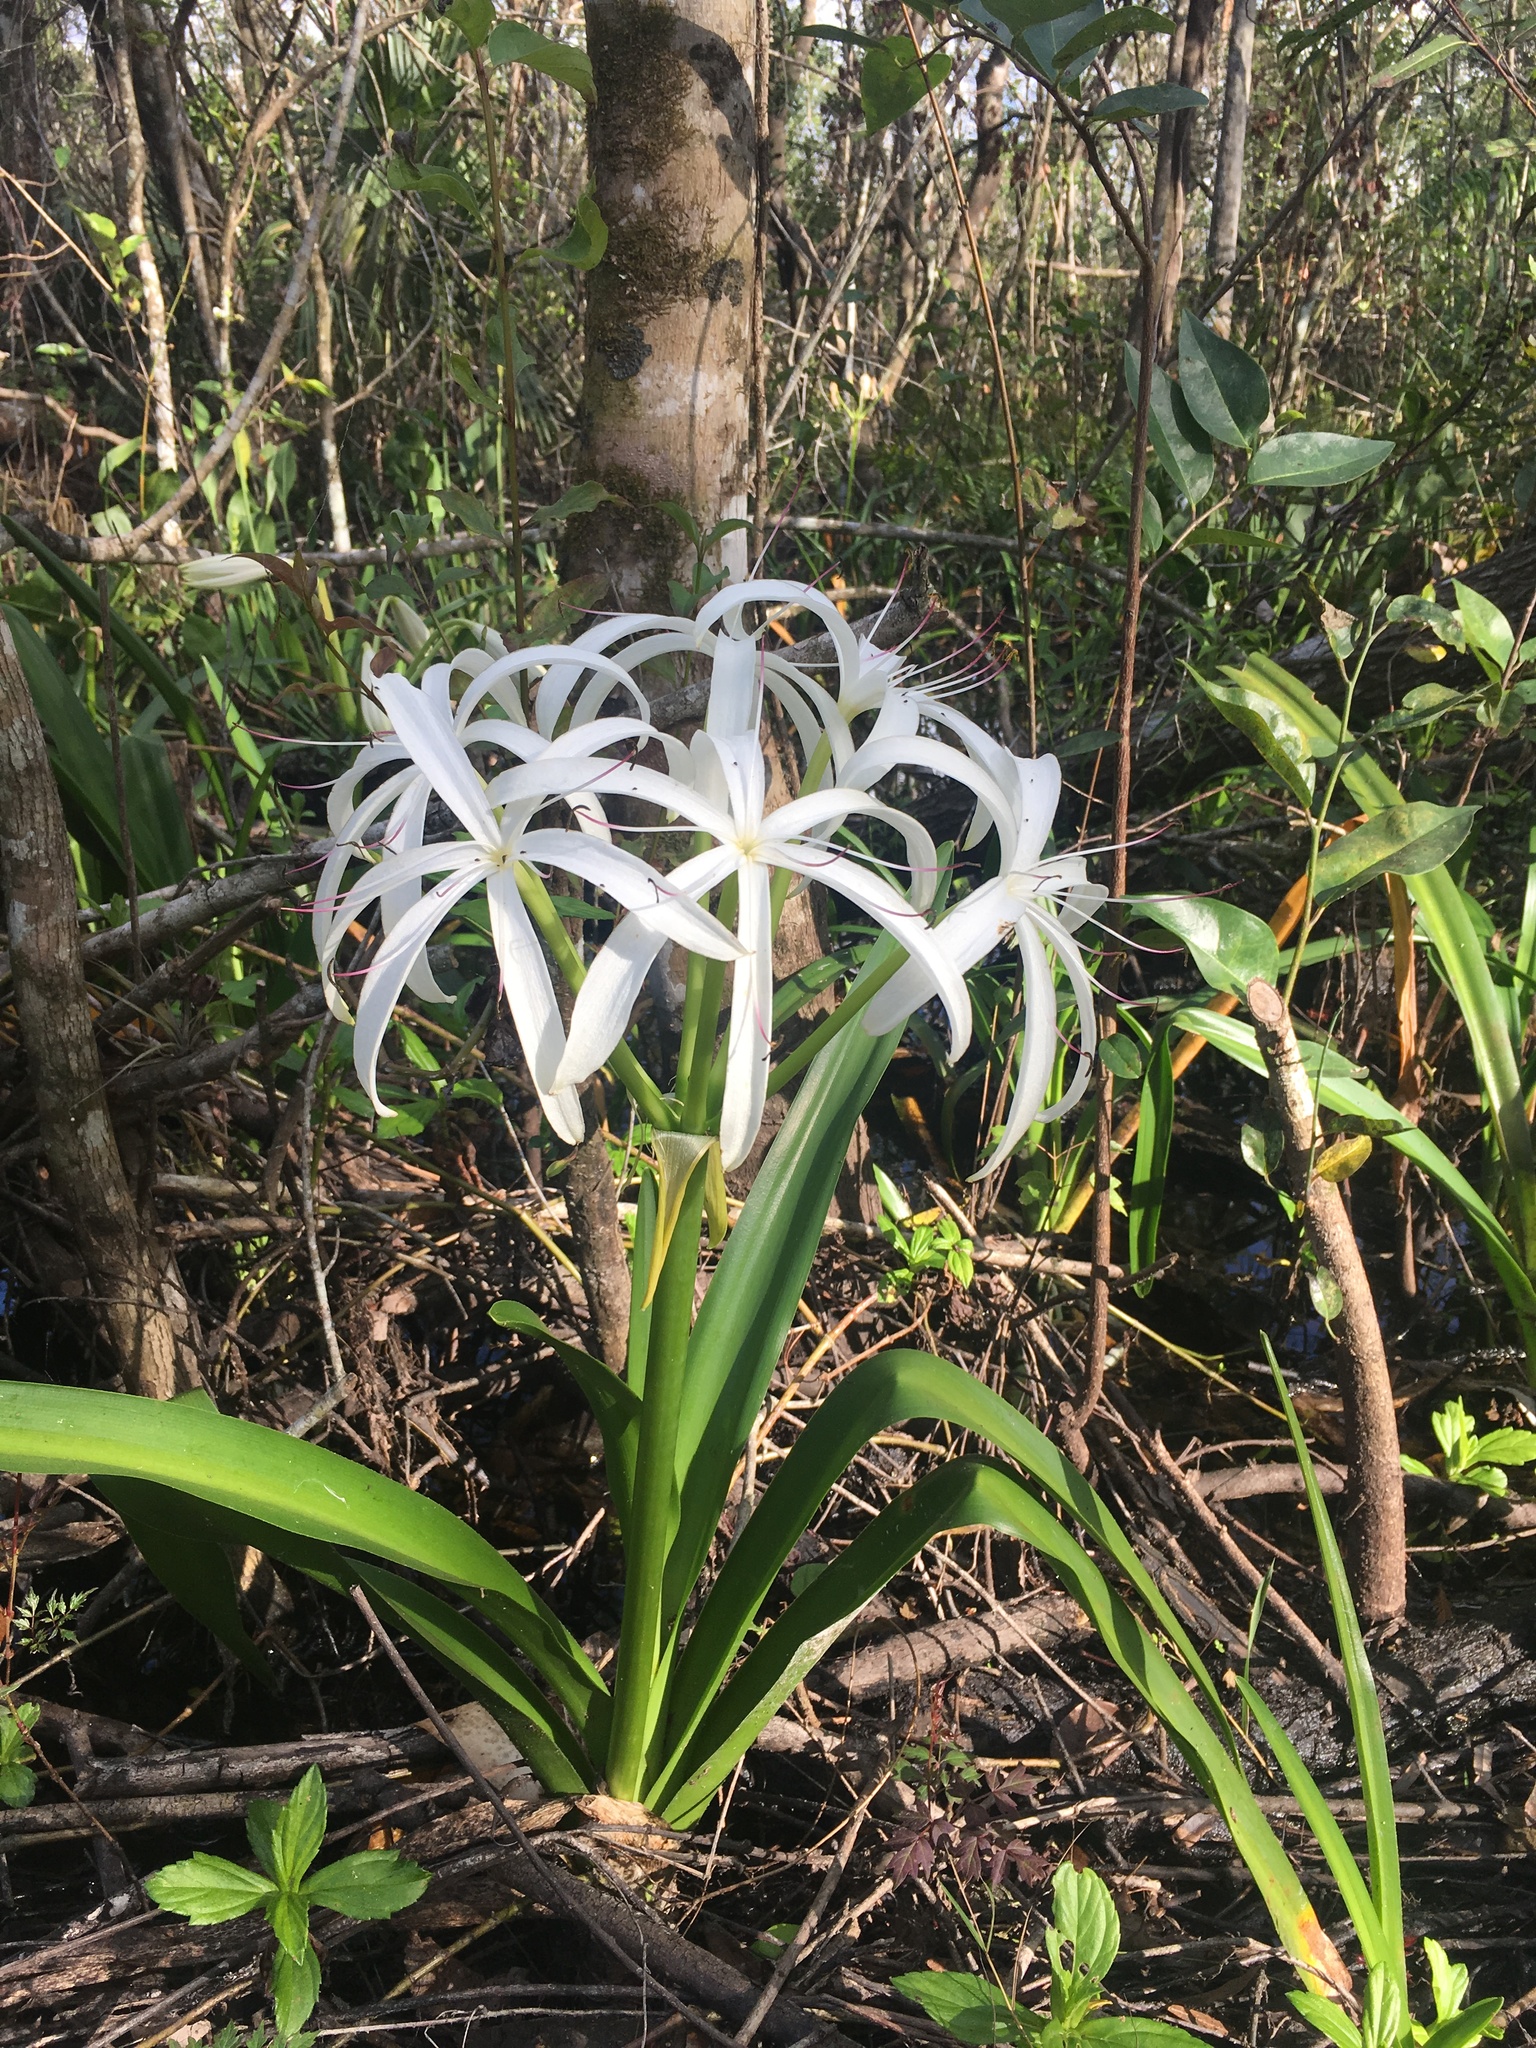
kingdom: Plantae
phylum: Tracheophyta
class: Liliopsida
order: Asparagales
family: Amaryllidaceae
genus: Crinum
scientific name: Crinum americanum
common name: Florida swamp-lily
